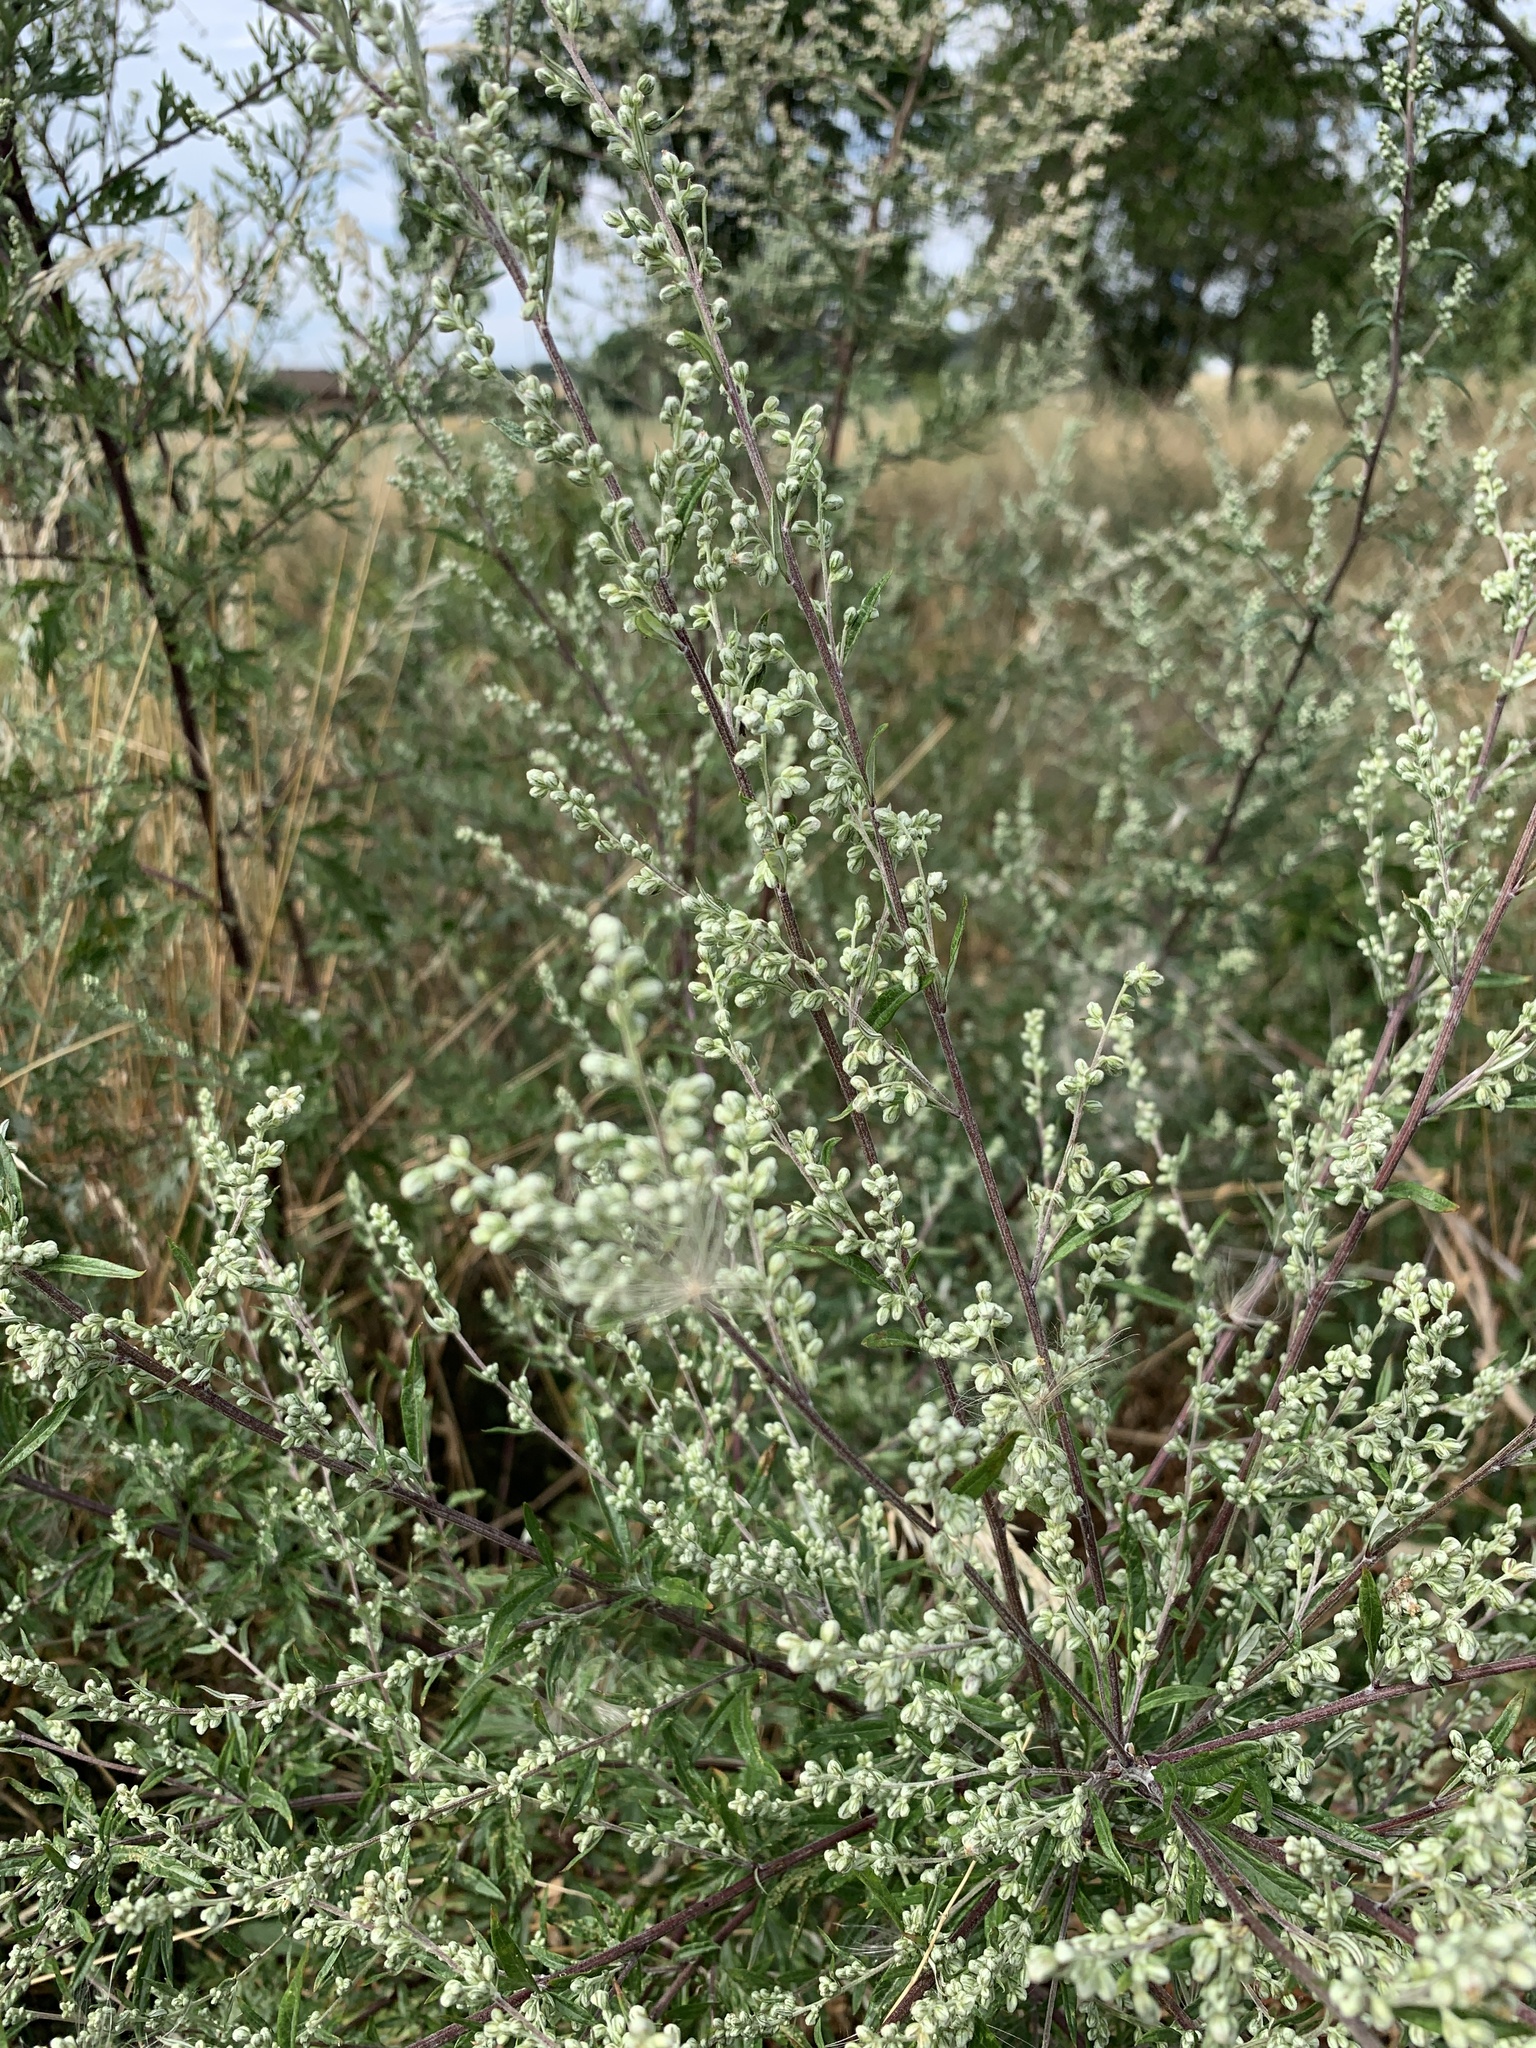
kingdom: Plantae
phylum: Tracheophyta
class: Magnoliopsida
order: Asterales
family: Asteraceae
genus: Artemisia
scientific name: Artemisia vulgaris
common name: Mugwort
